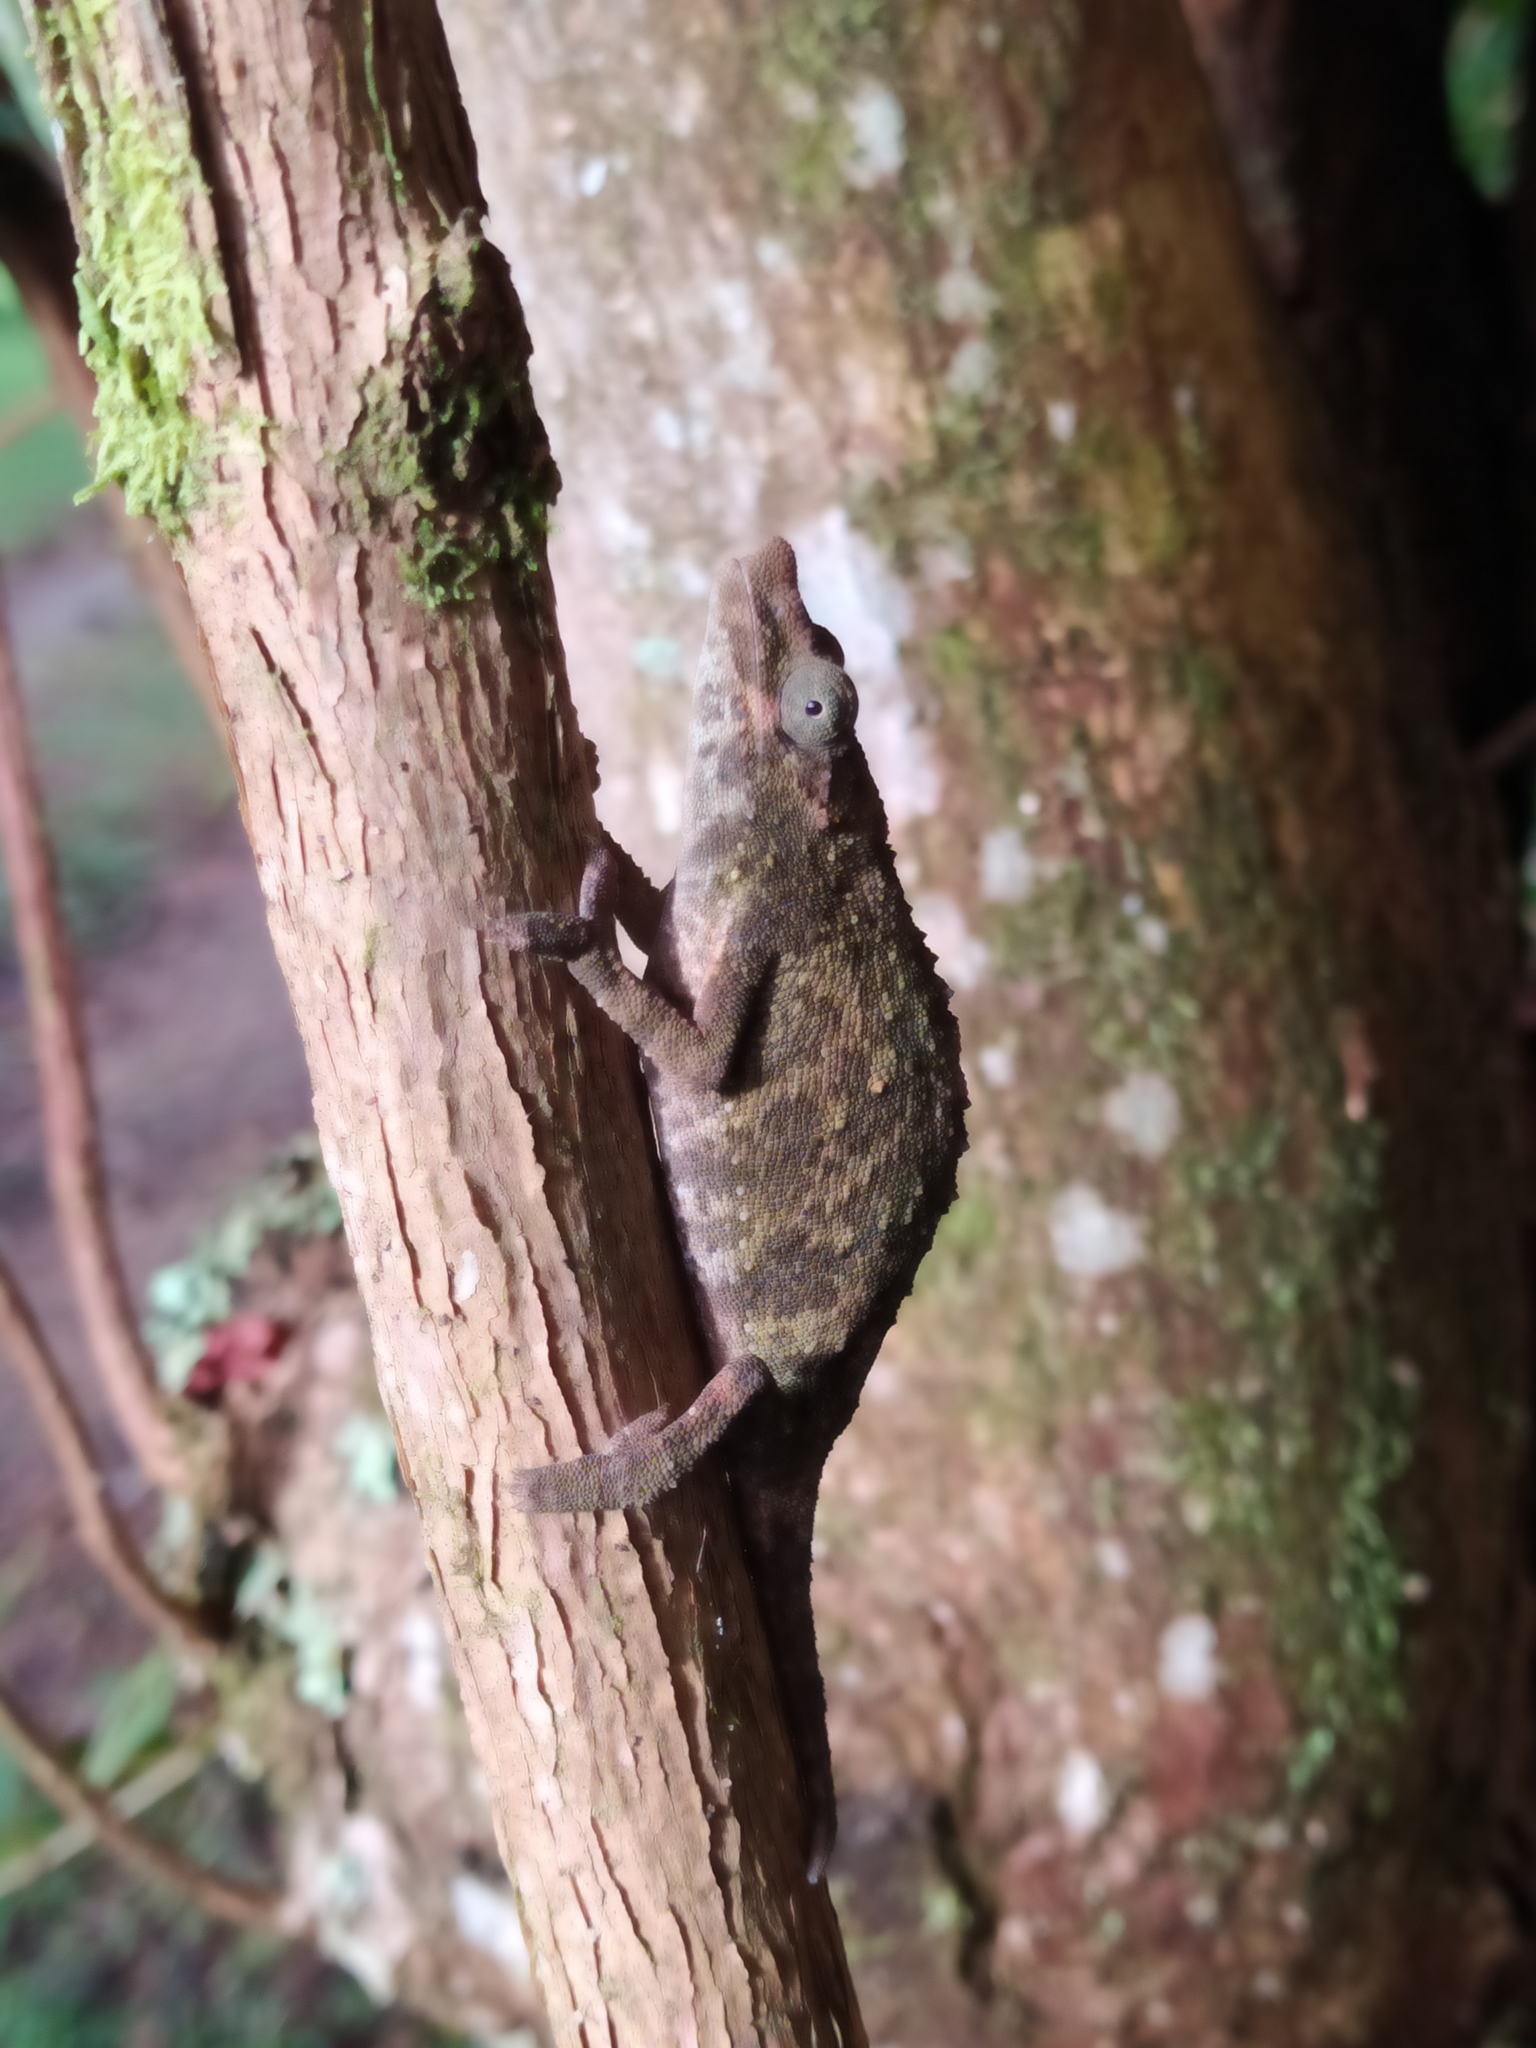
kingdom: Animalia
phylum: Chordata
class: Squamata
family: Chamaeleonidae
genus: Rhampholeon
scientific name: Rhampholeon marshalli
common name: Marshall's african leaf chameleon
